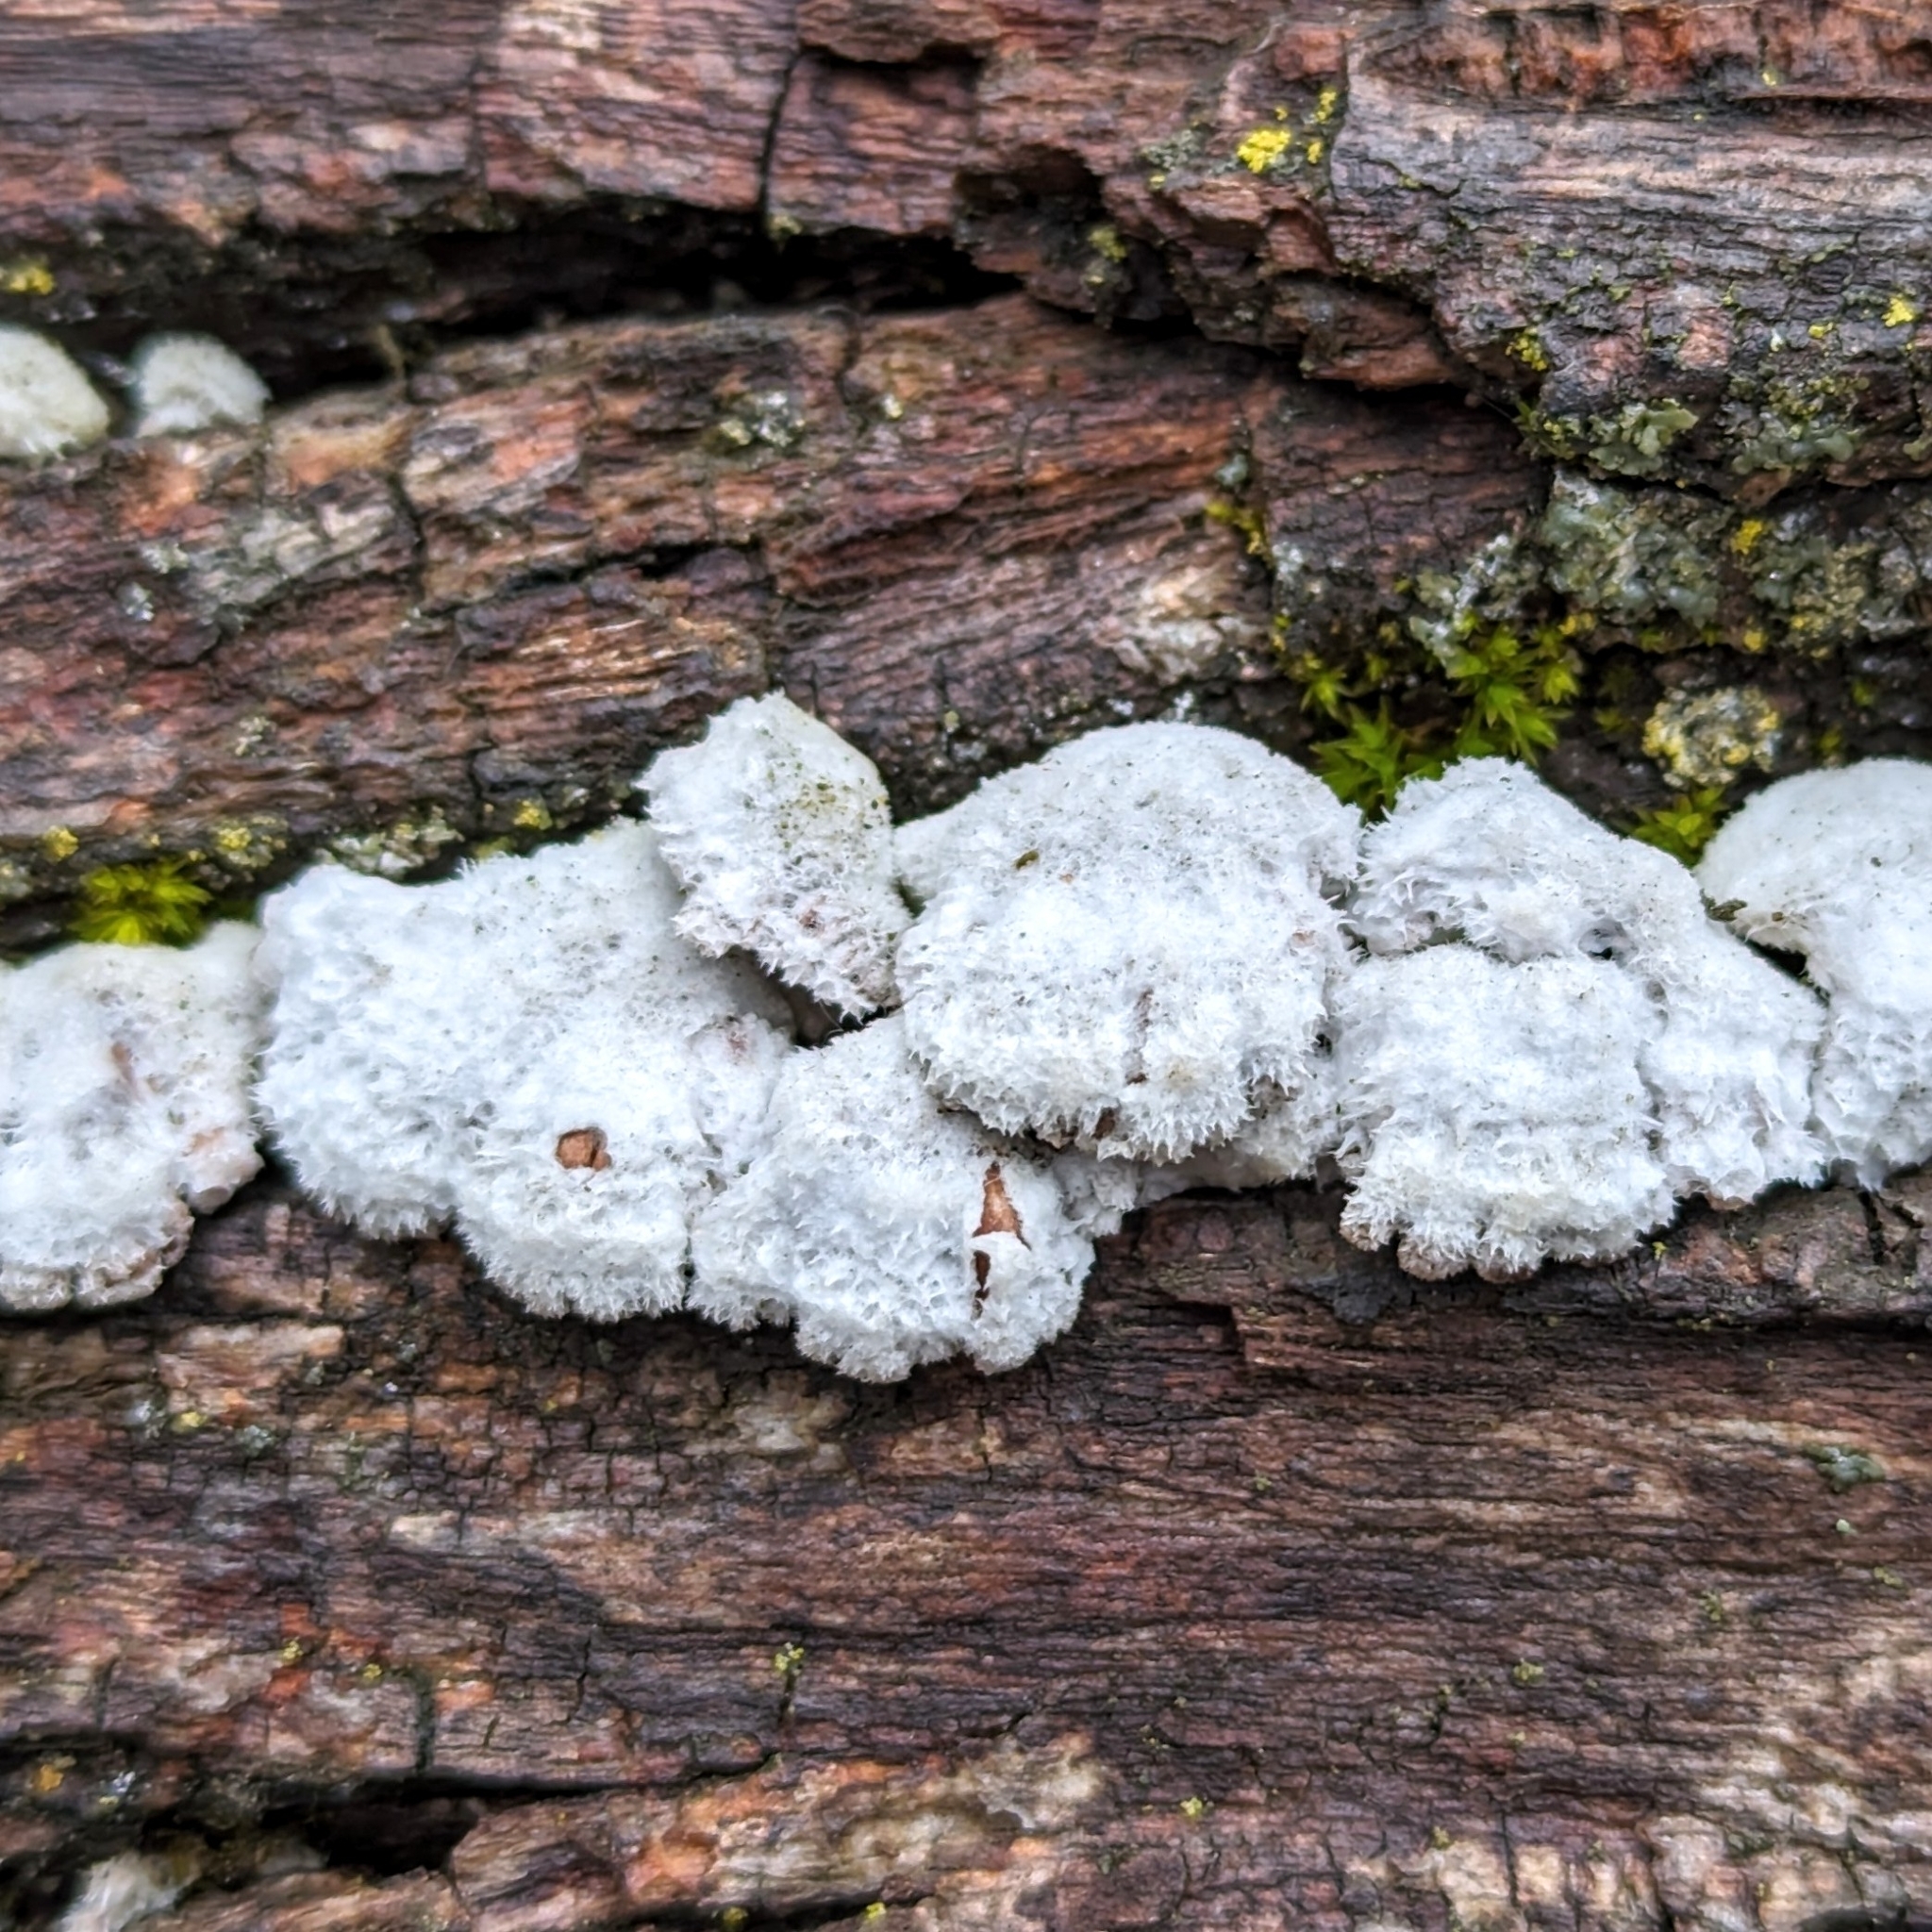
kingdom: Fungi
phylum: Basidiomycota
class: Agaricomycetes
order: Agaricales
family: Schizophyllaceae
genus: Schizophyllum
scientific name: Schizophyllum commune
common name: Common porecrust
